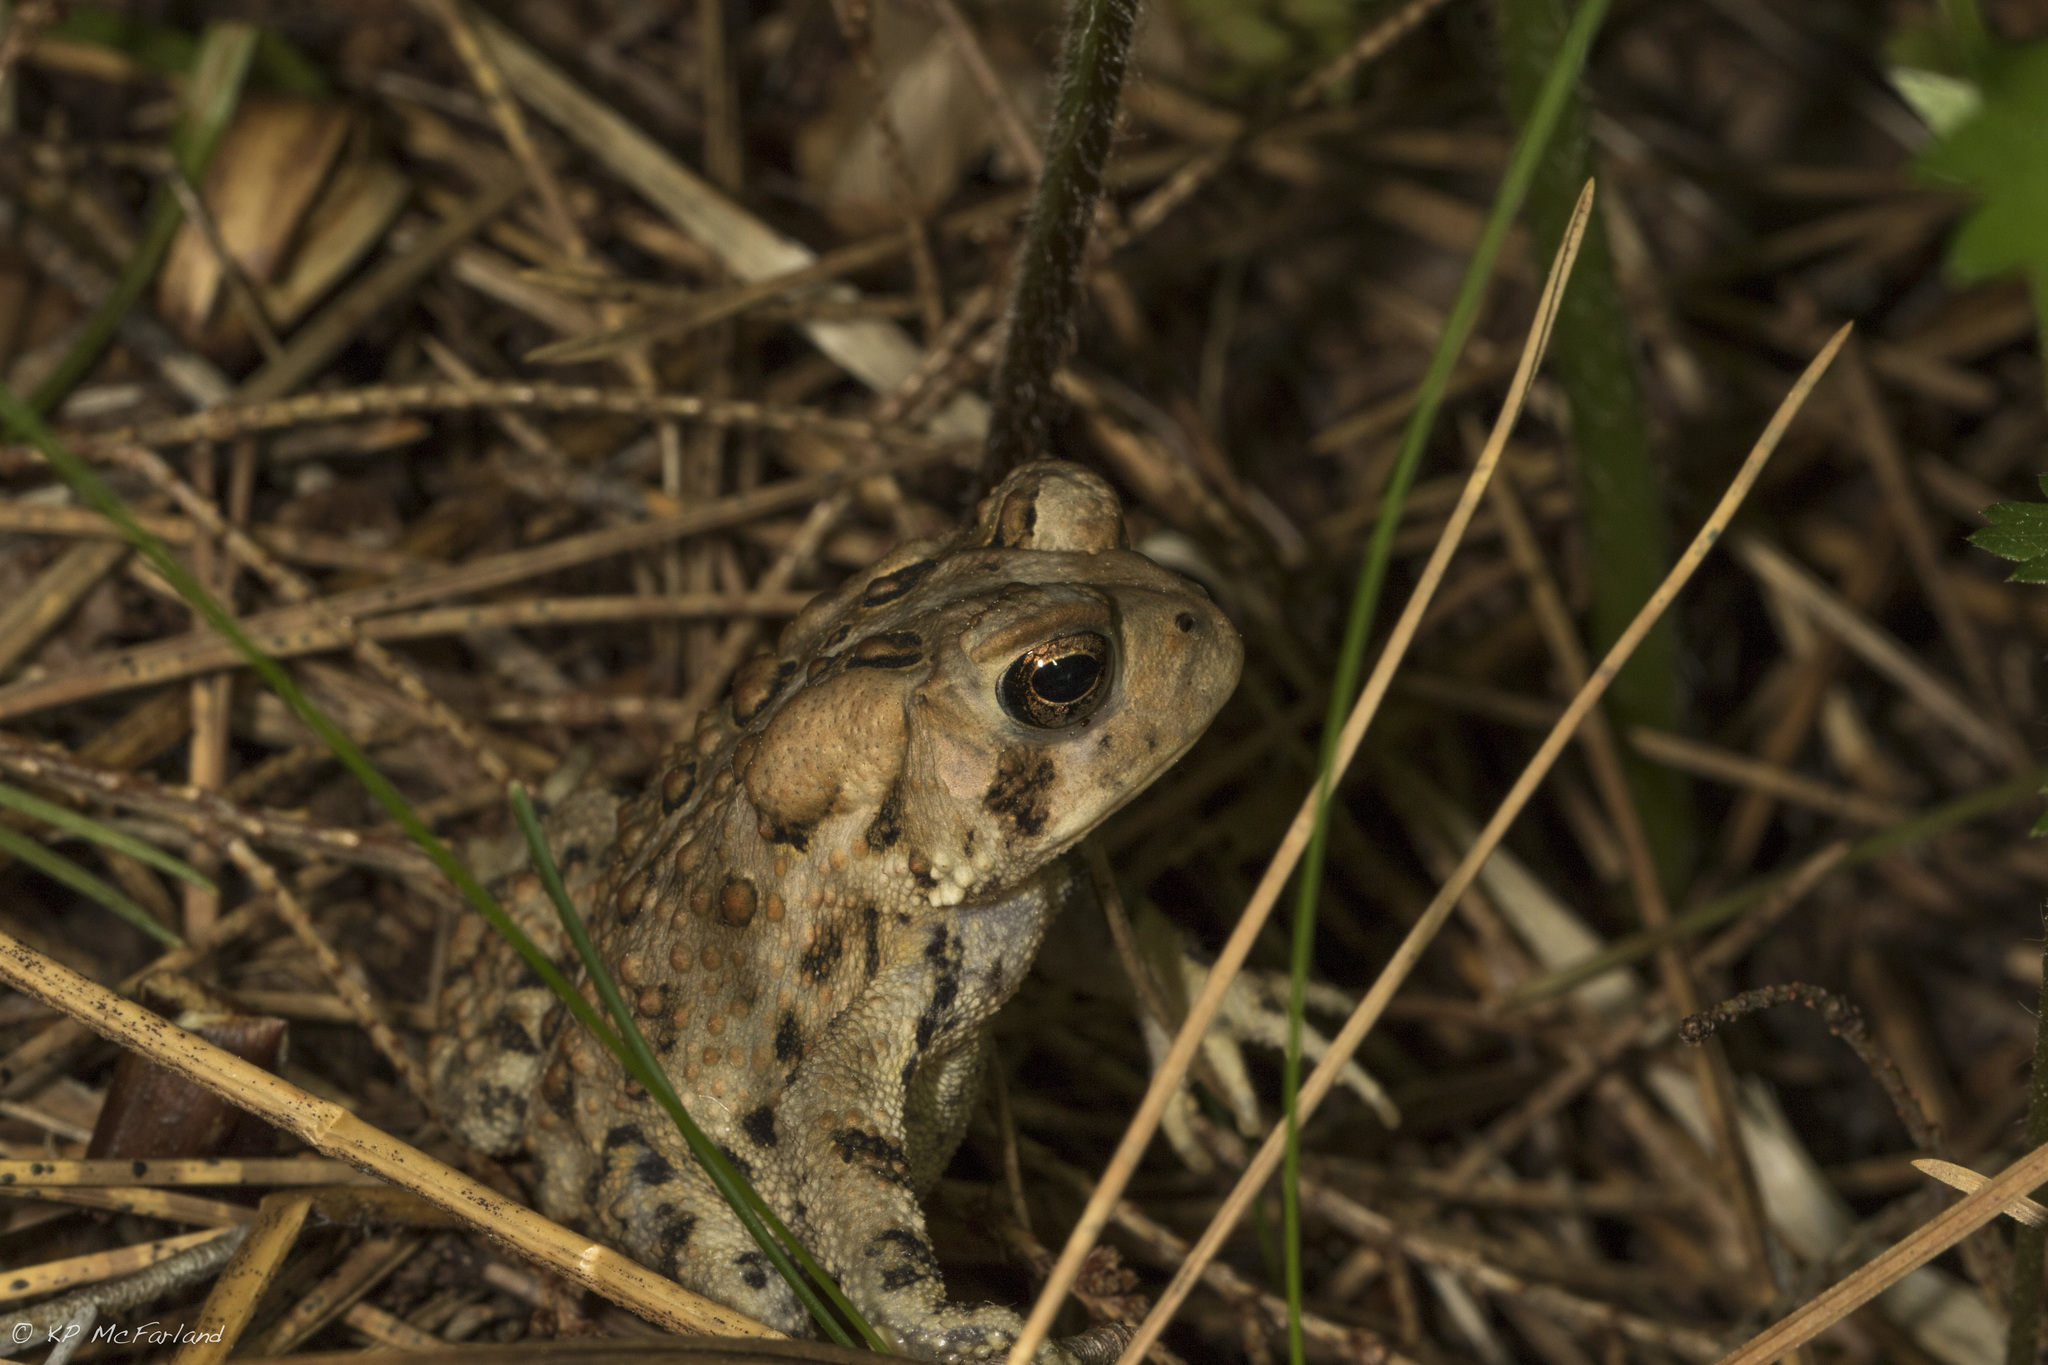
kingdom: Animalia
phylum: Chordata
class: Amphibia
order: Anura
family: Bufonidae
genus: Anaxyrus
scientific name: Anaxyrus americanus
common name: American toad
